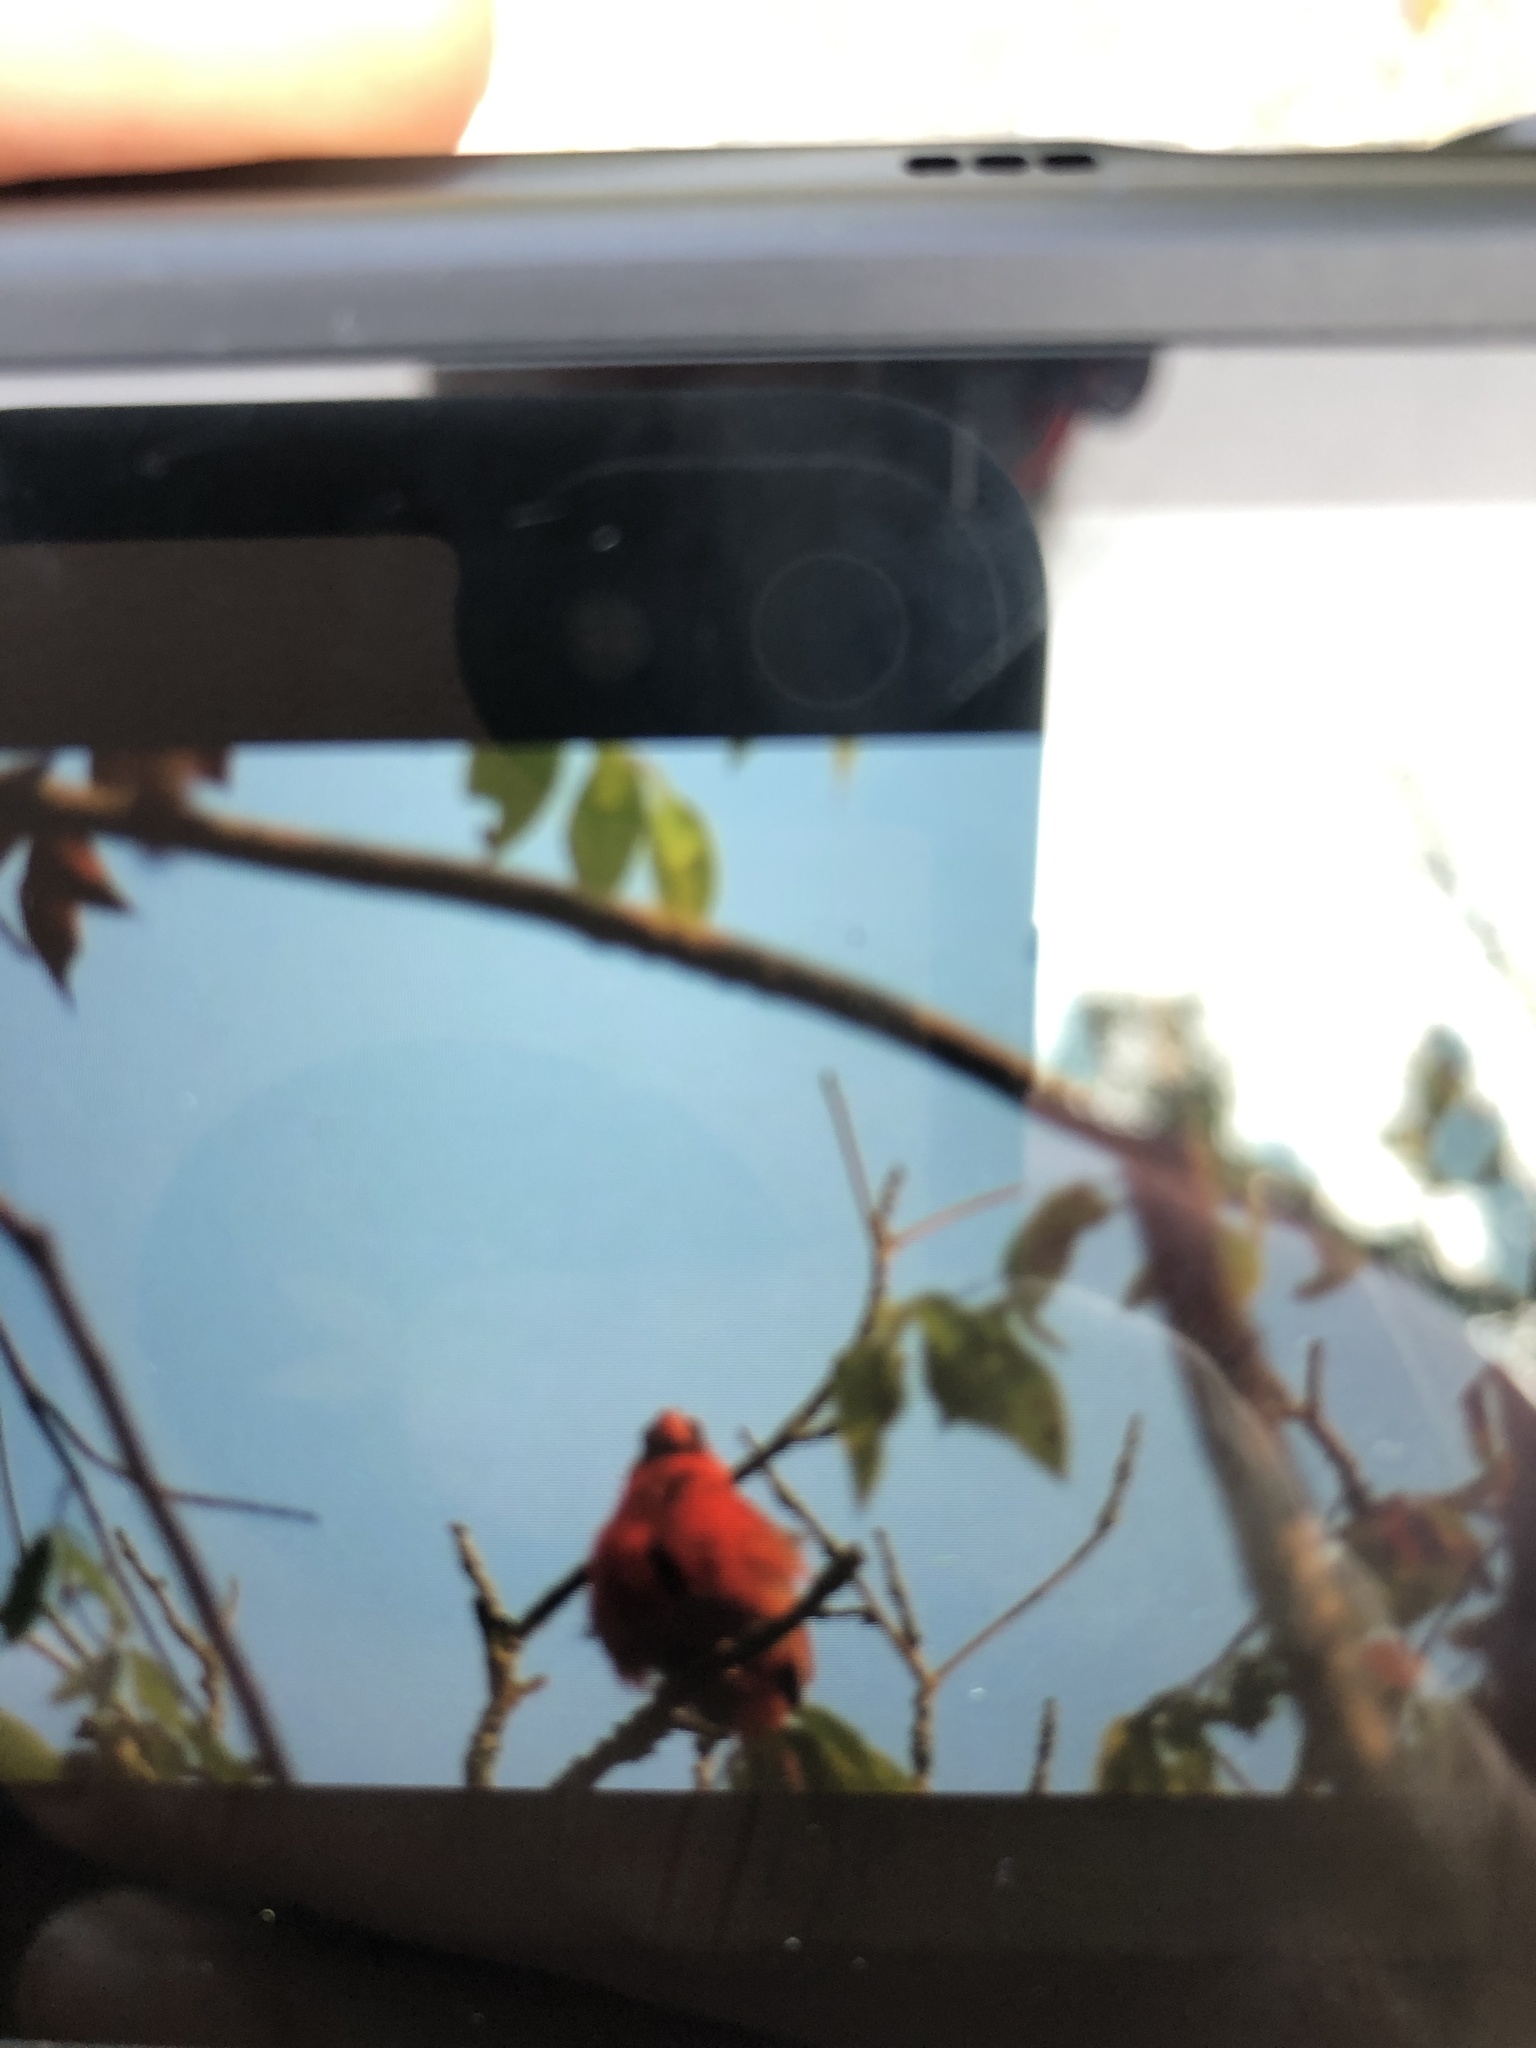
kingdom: Animalia
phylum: Chordata
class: Aves
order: Passeriformes
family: Cardinalidae
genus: Cardinalis
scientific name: Cardinalis cardinalis
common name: Northern cardinal
